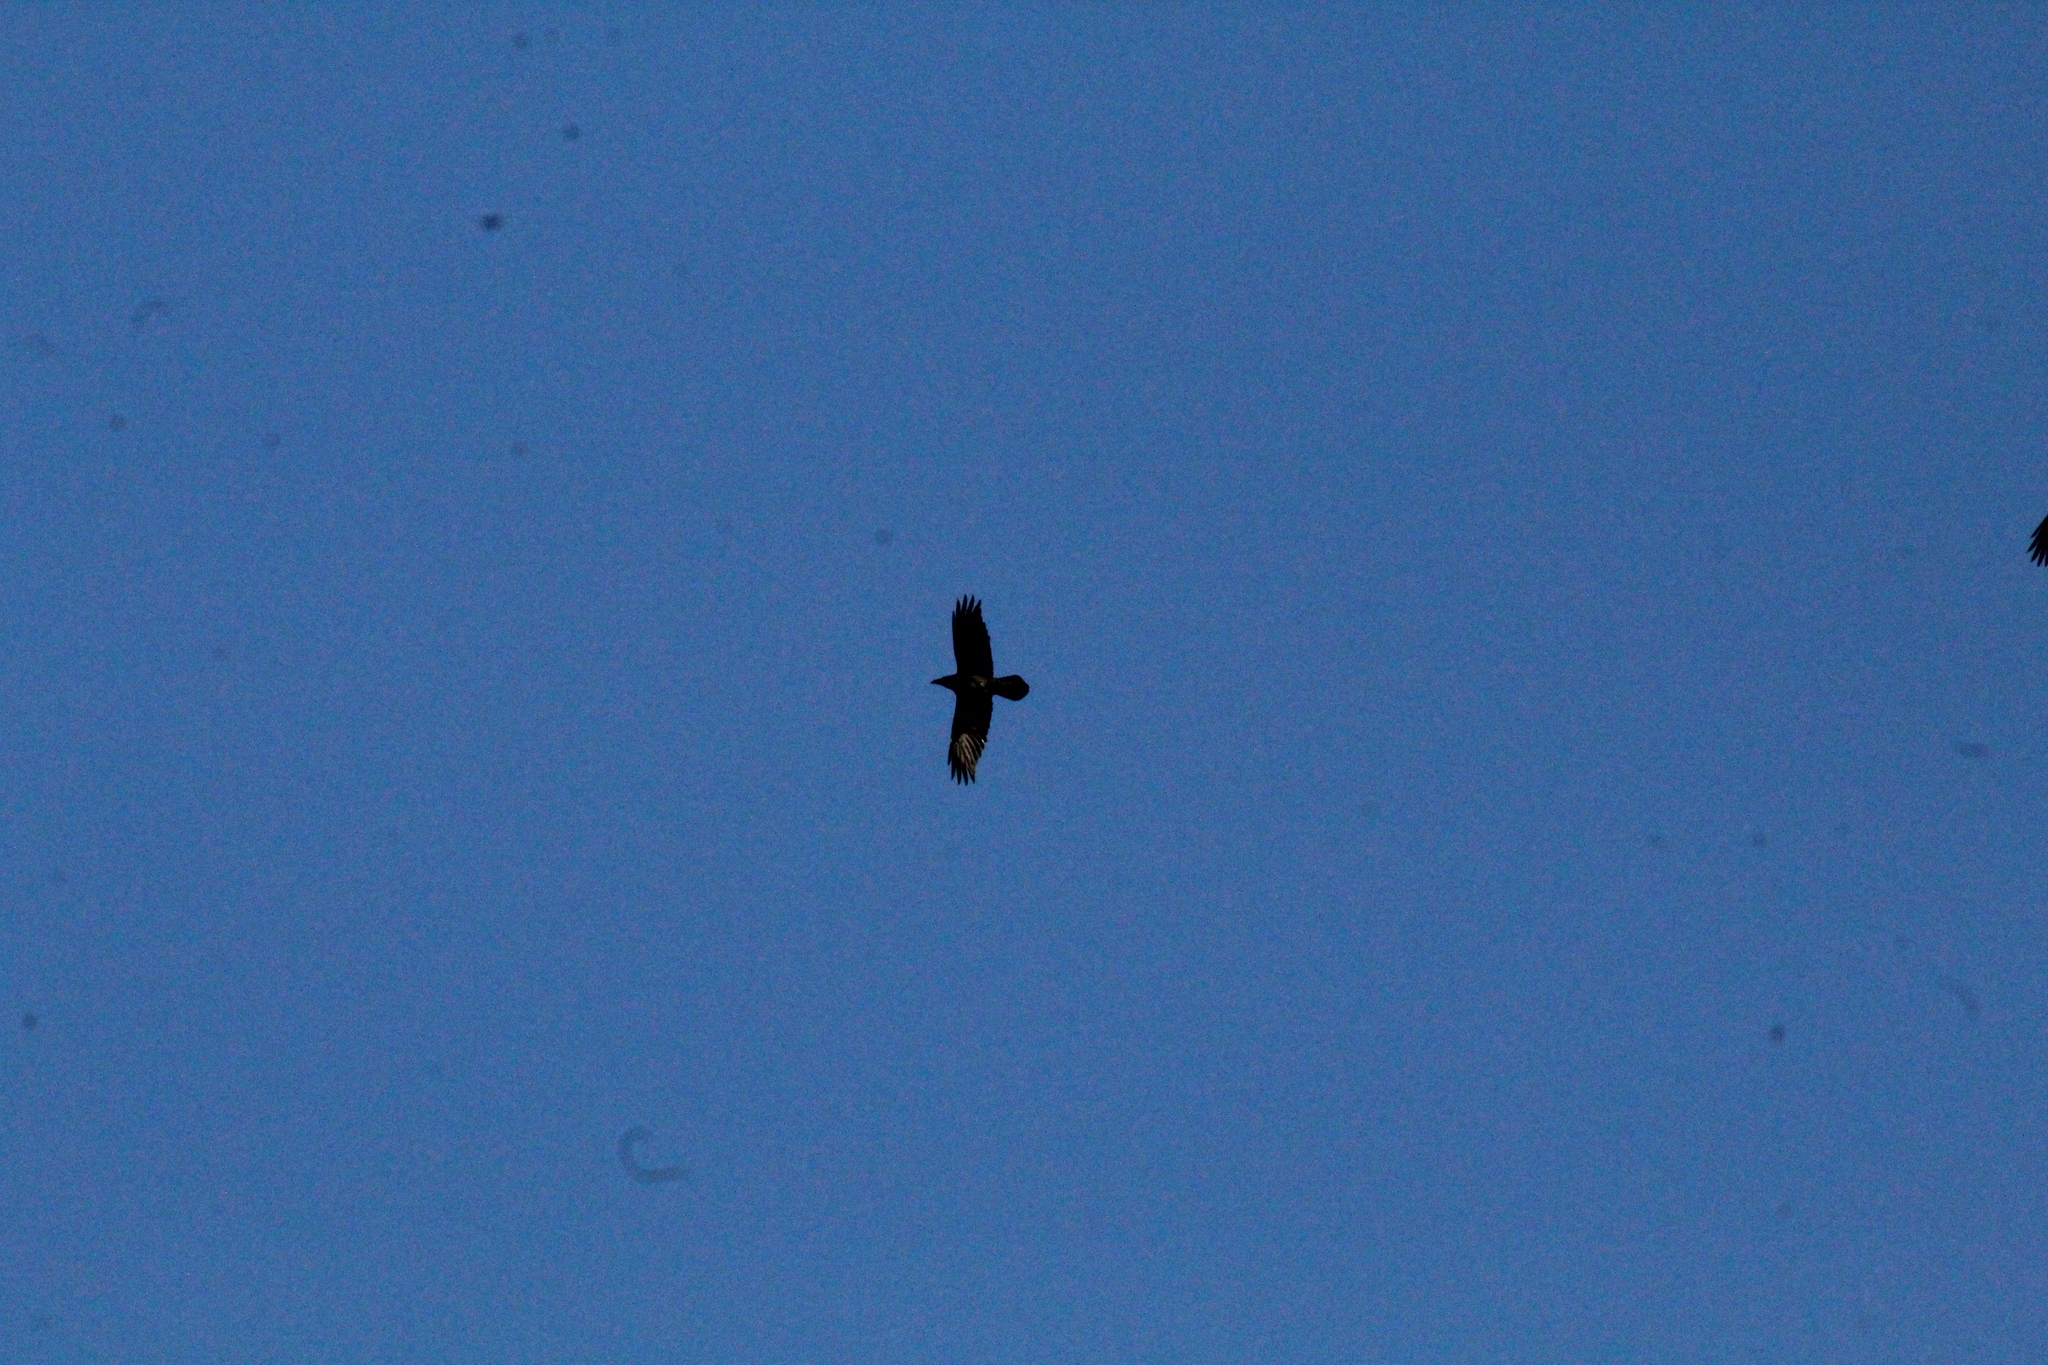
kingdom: Animalia
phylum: Chordata
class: Aves
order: Passeriformes
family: Corvidae
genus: Corvus
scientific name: Corvus corax
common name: Common raven
